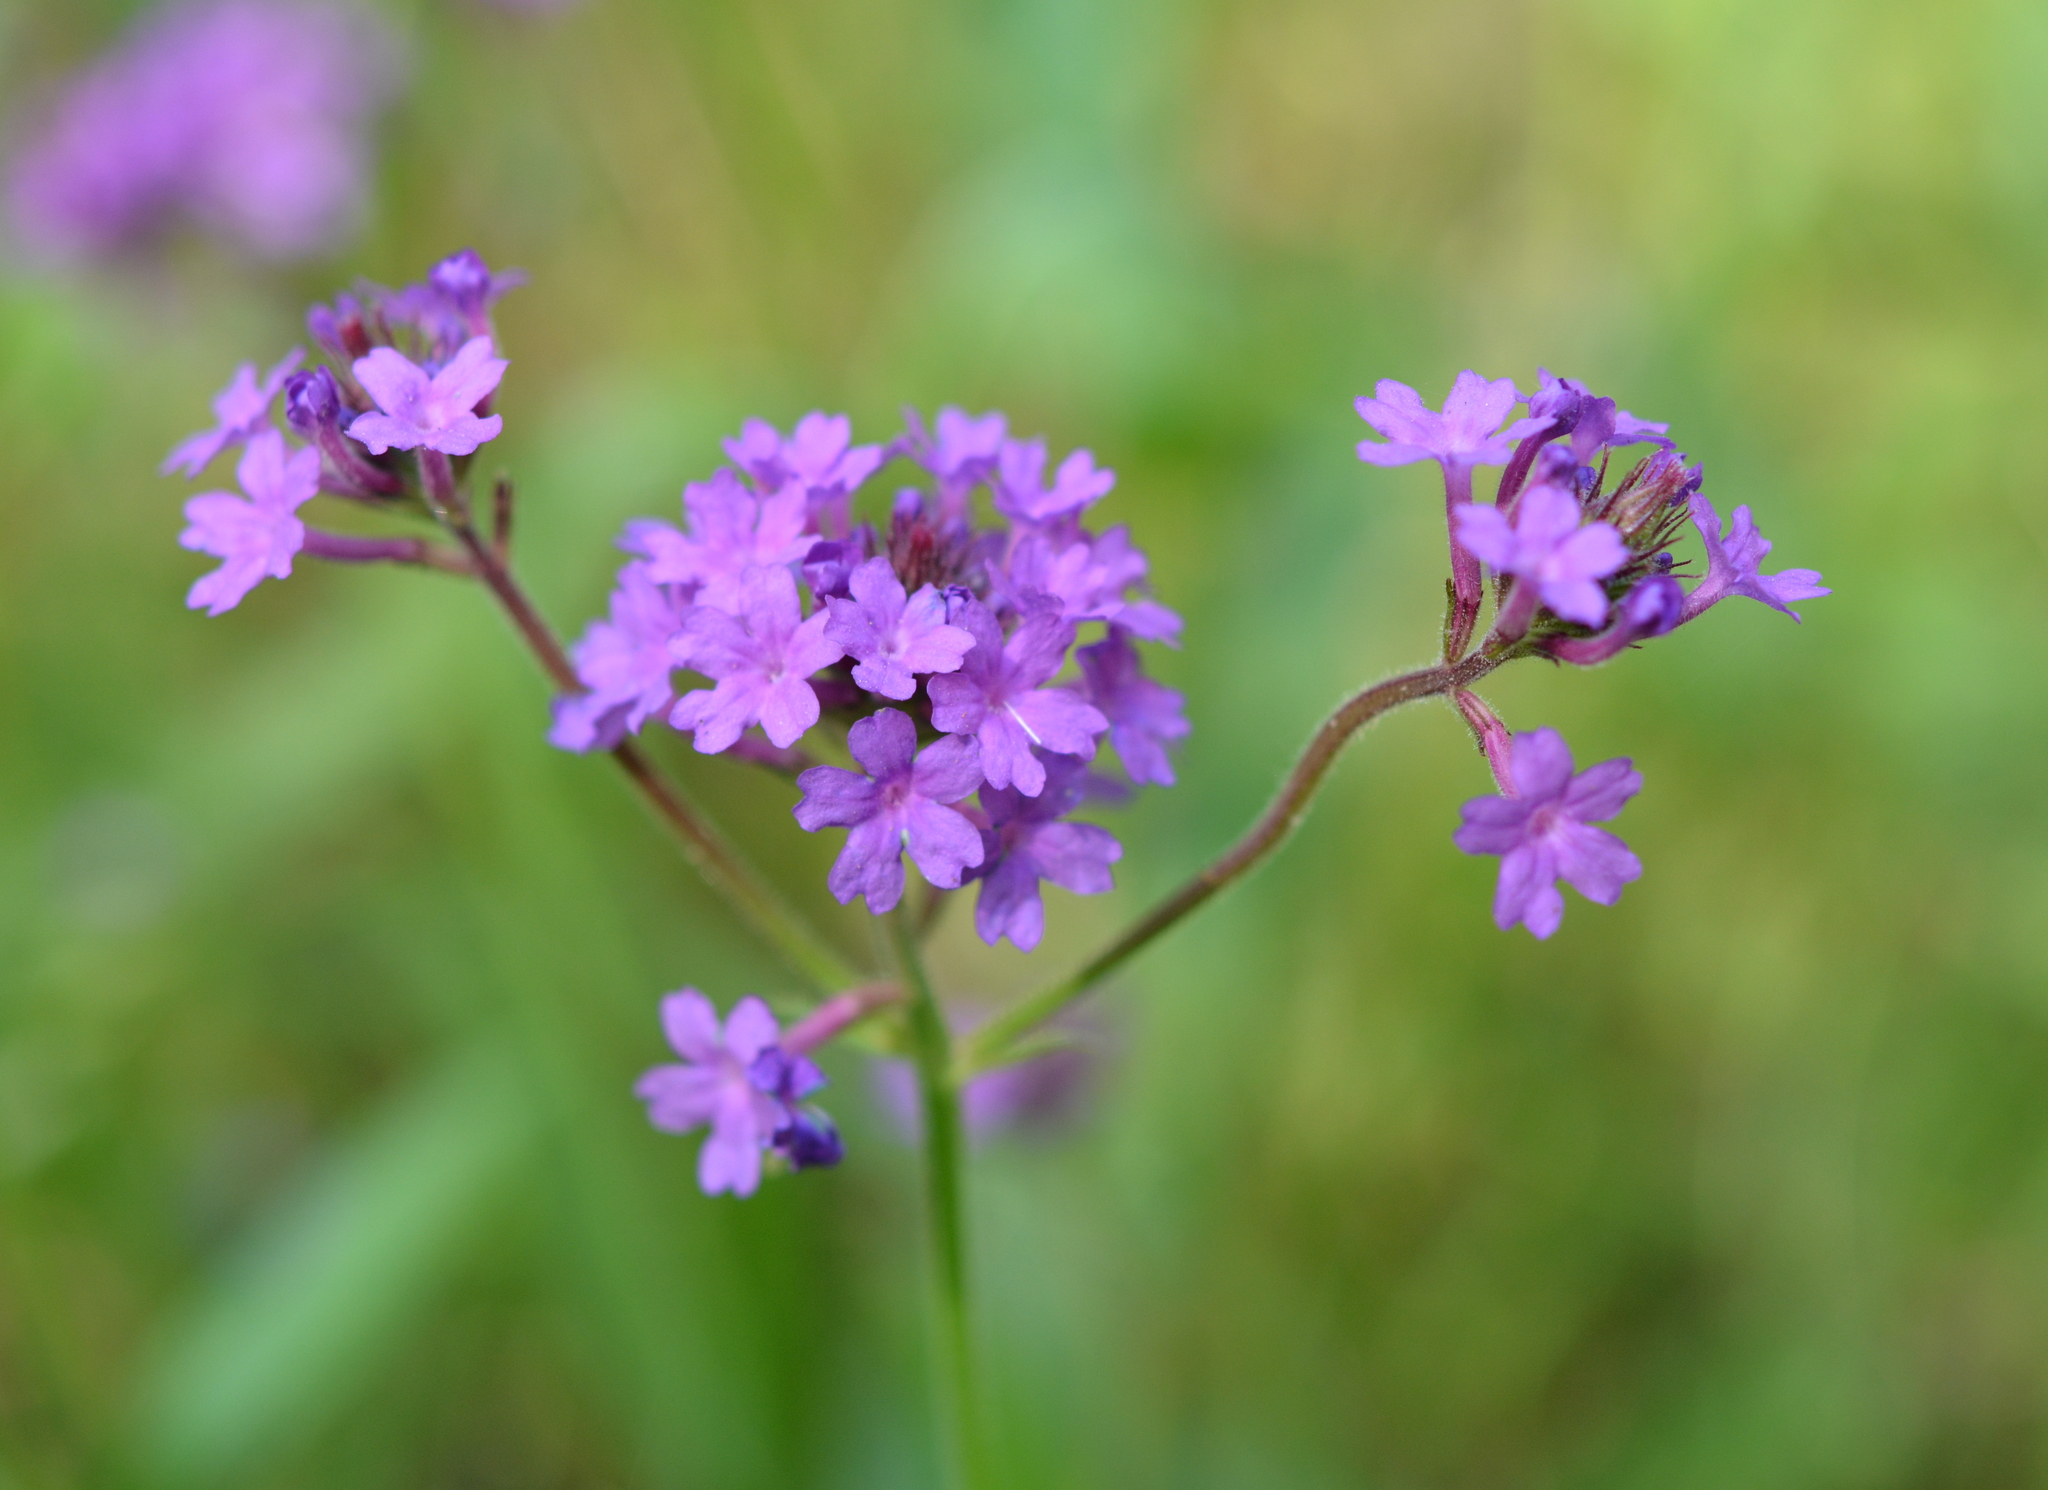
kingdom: Plantae
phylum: Tracheophyta
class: Magnoliopsida
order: Lamiales
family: Verbenaceae
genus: Verbena
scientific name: Verbena rigida
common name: Slender vervain
